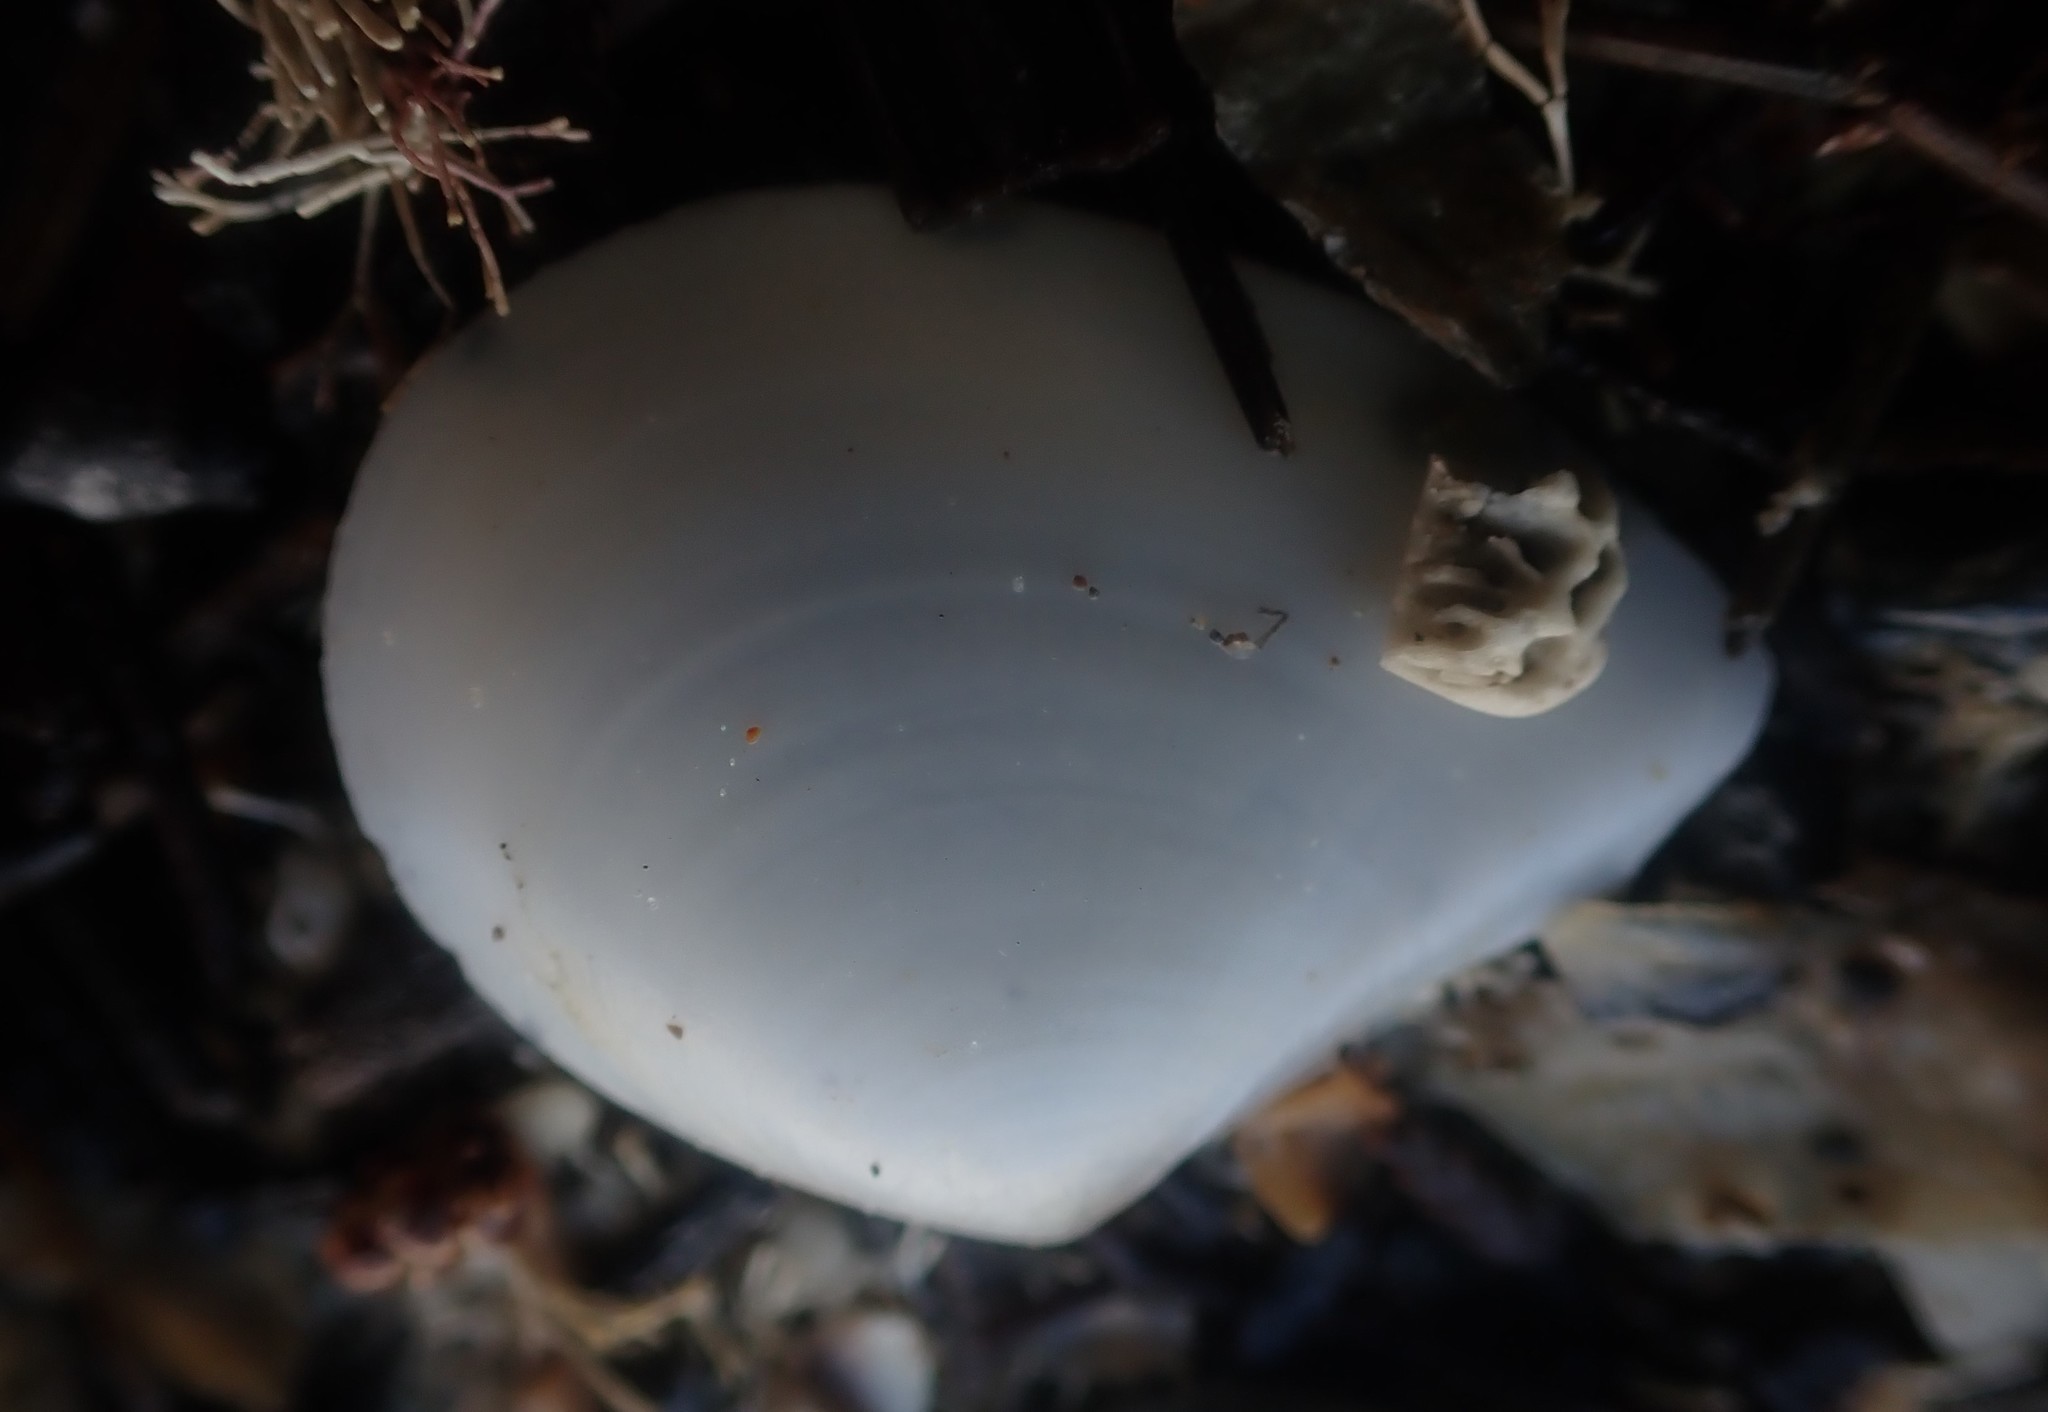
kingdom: Animalia
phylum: Mollusca
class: Bivalvia
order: Cardiida
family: Tellinidae
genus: Macomona
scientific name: Macomona liliana
